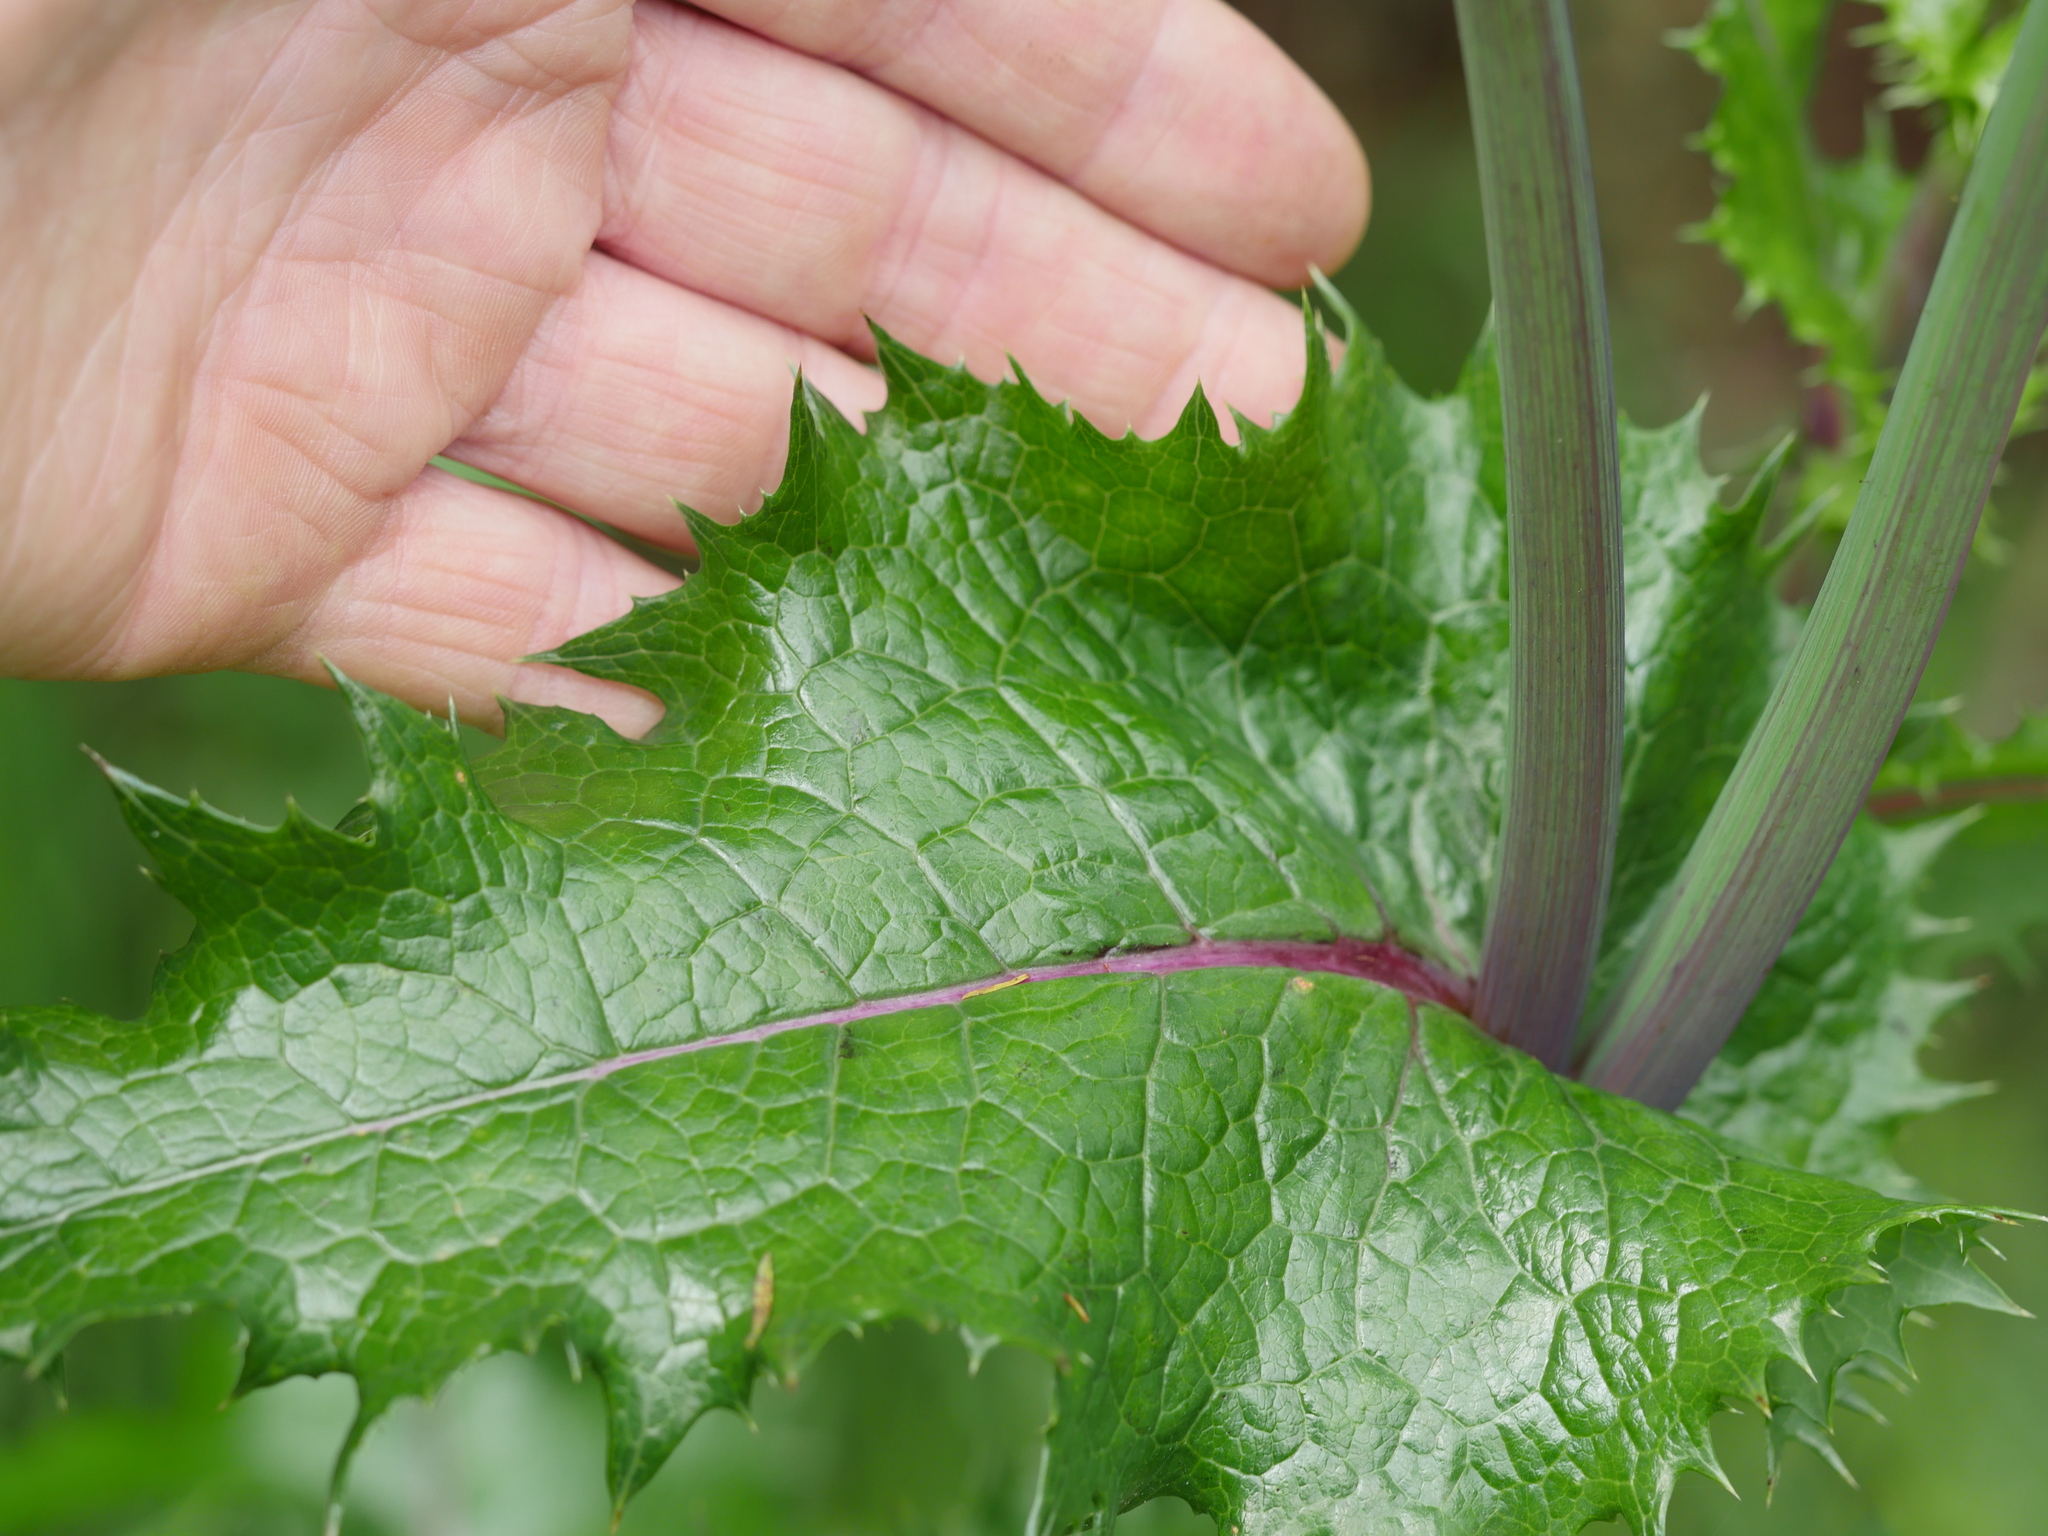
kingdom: Plantae
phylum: Tracheophyta
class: Magnoliopsida
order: Asterales
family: Asteraceae
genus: Sonchus
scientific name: Sonchus asper
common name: Prickly sow-thistle
